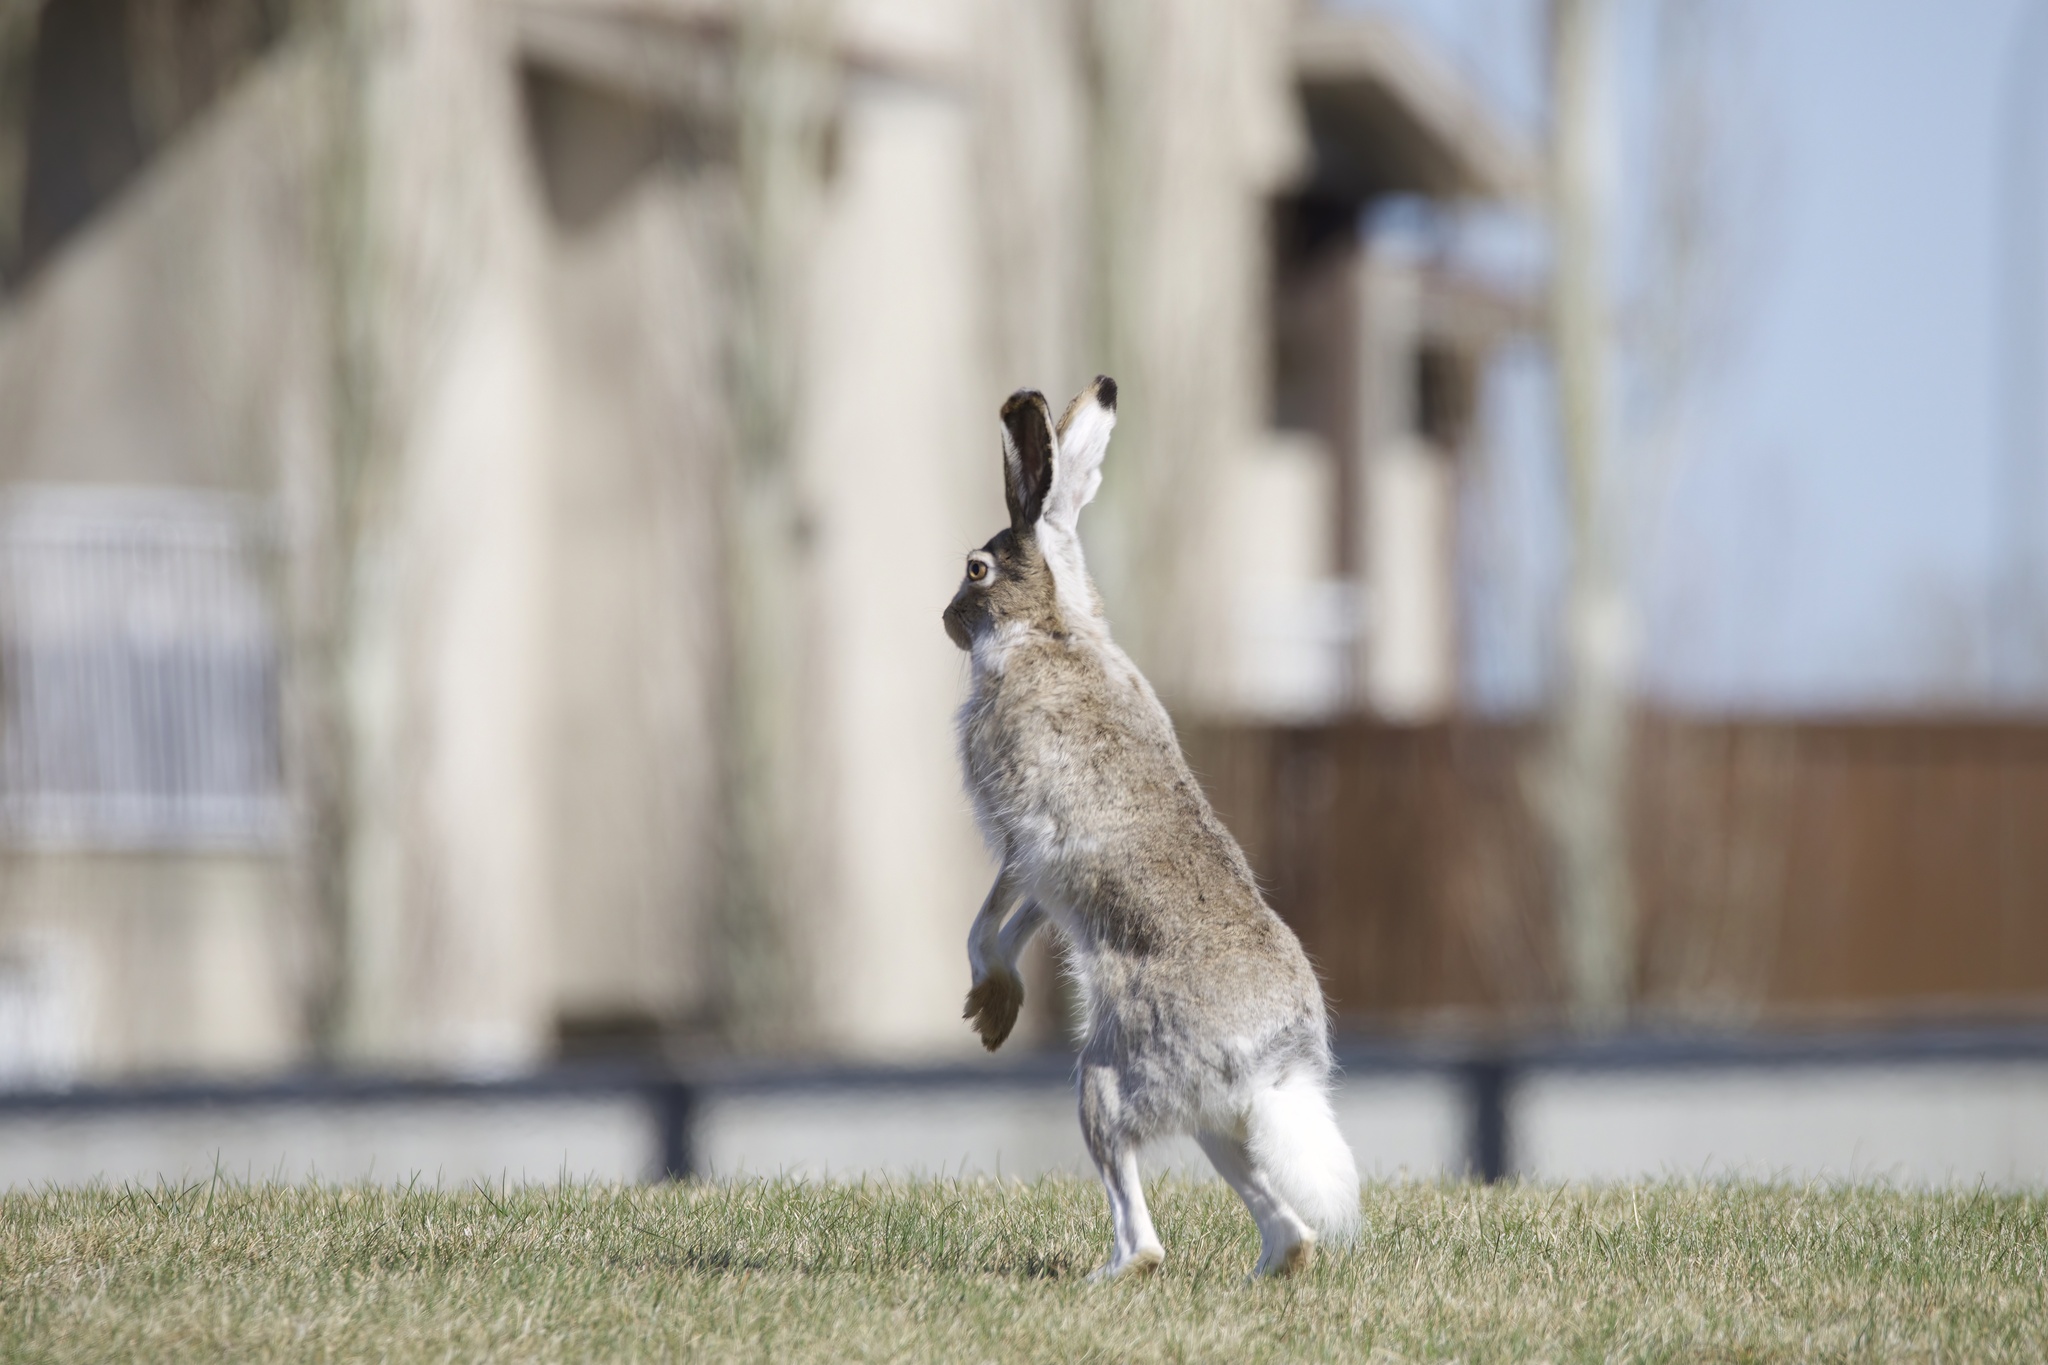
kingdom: Animalia
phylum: Chordata
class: Mammalia
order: Lagomorpha
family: Leporidae
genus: Lepus
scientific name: Lepus townsendii
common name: White-tailed jackrabbit
